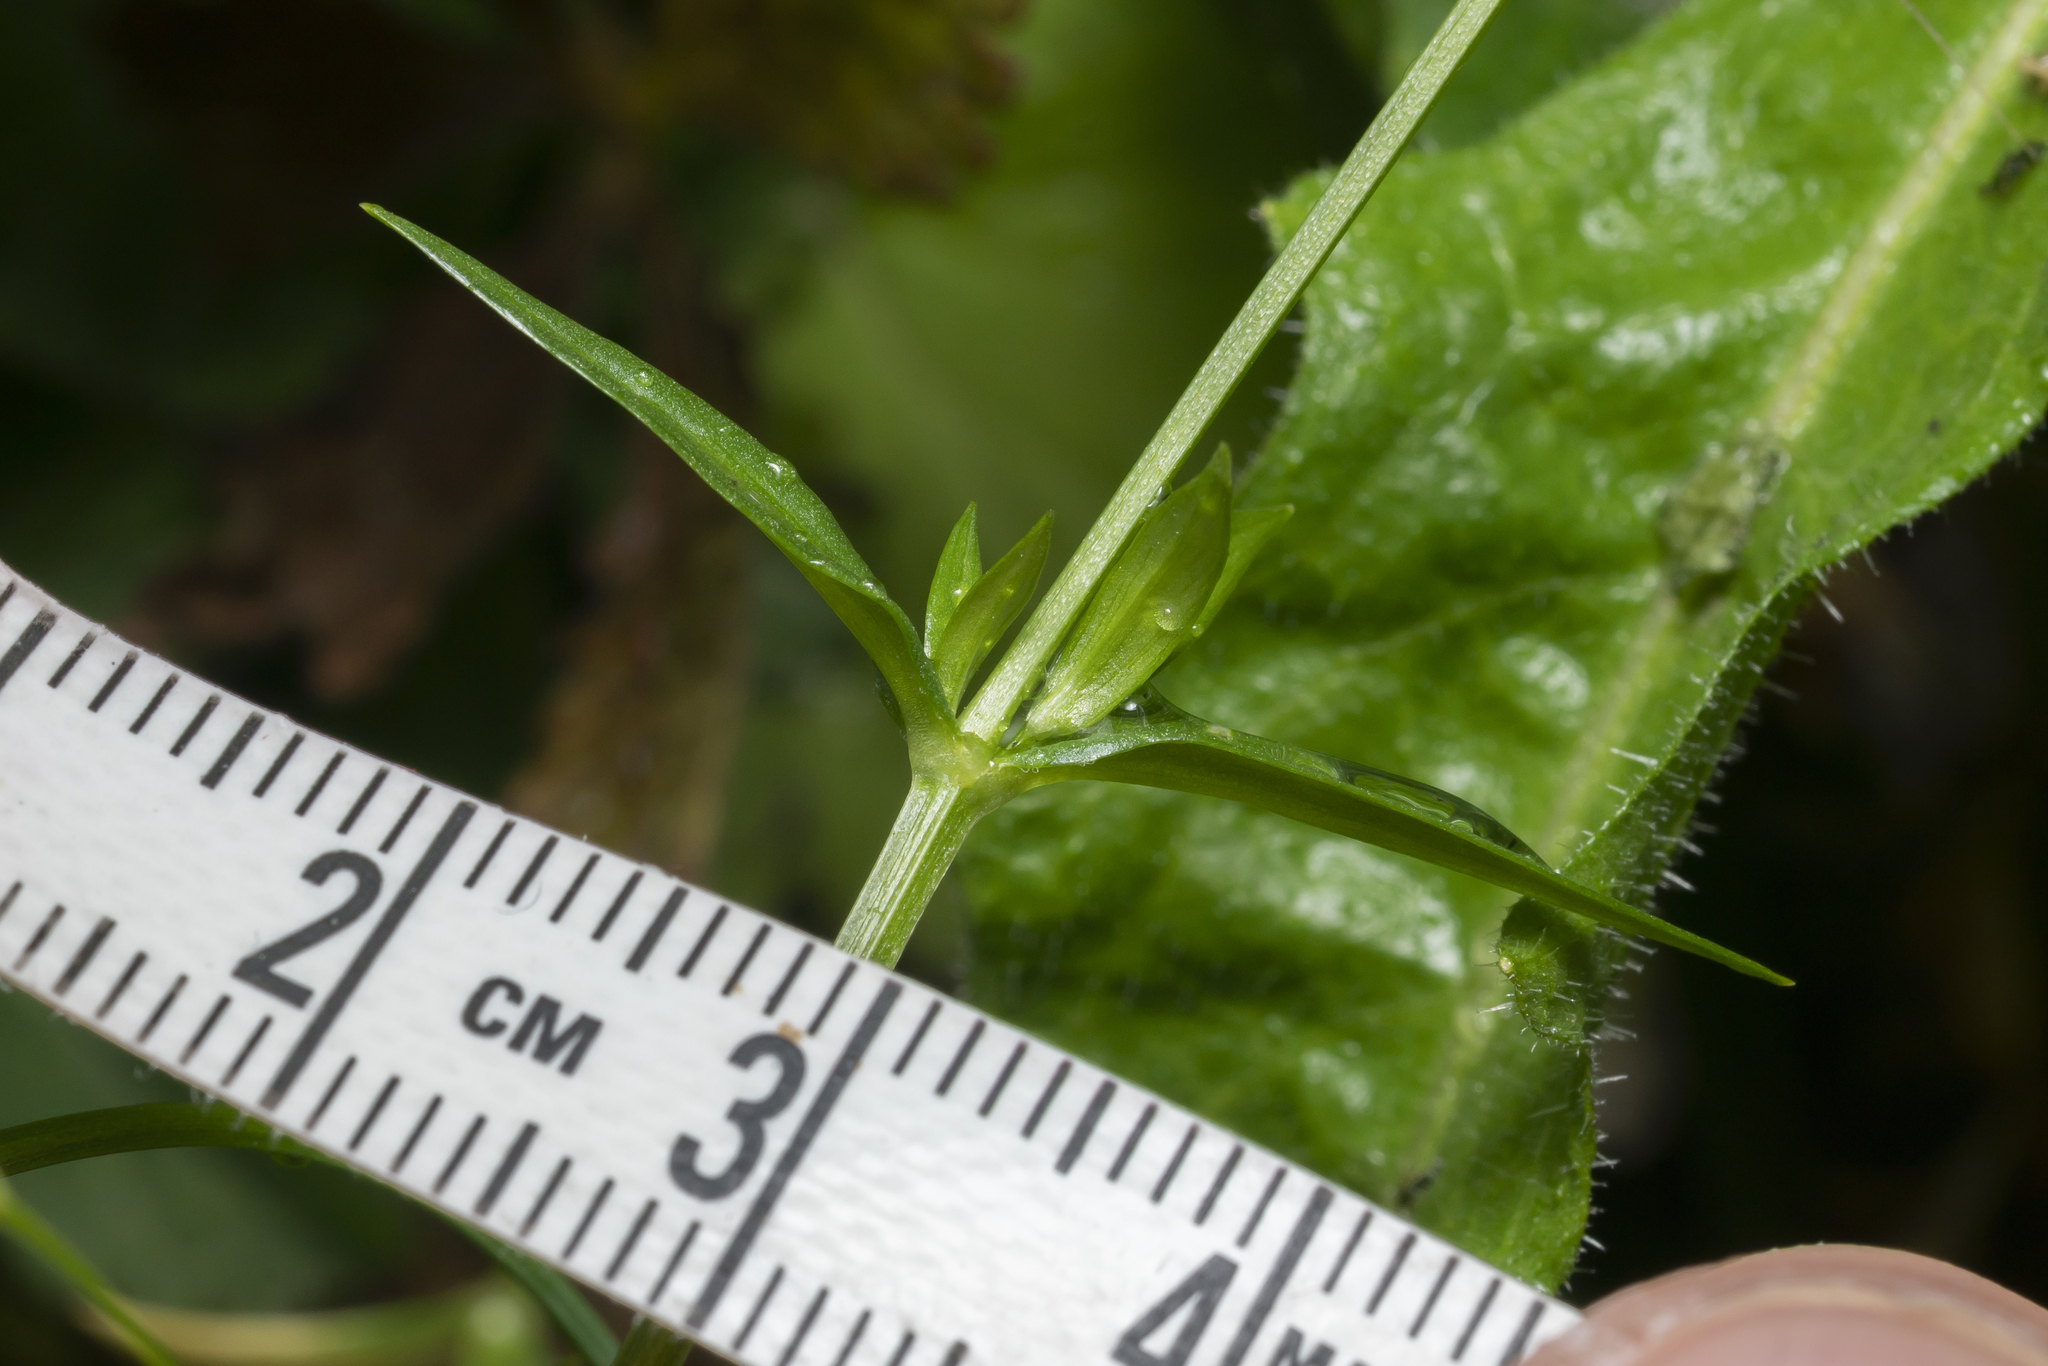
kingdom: Plantae
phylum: Tracheophyta
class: Magnoliopsida
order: Caryophyllales
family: Caryophyllaceae
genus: Stellaria
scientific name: Stellaria graminea
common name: Grass-like starwort
